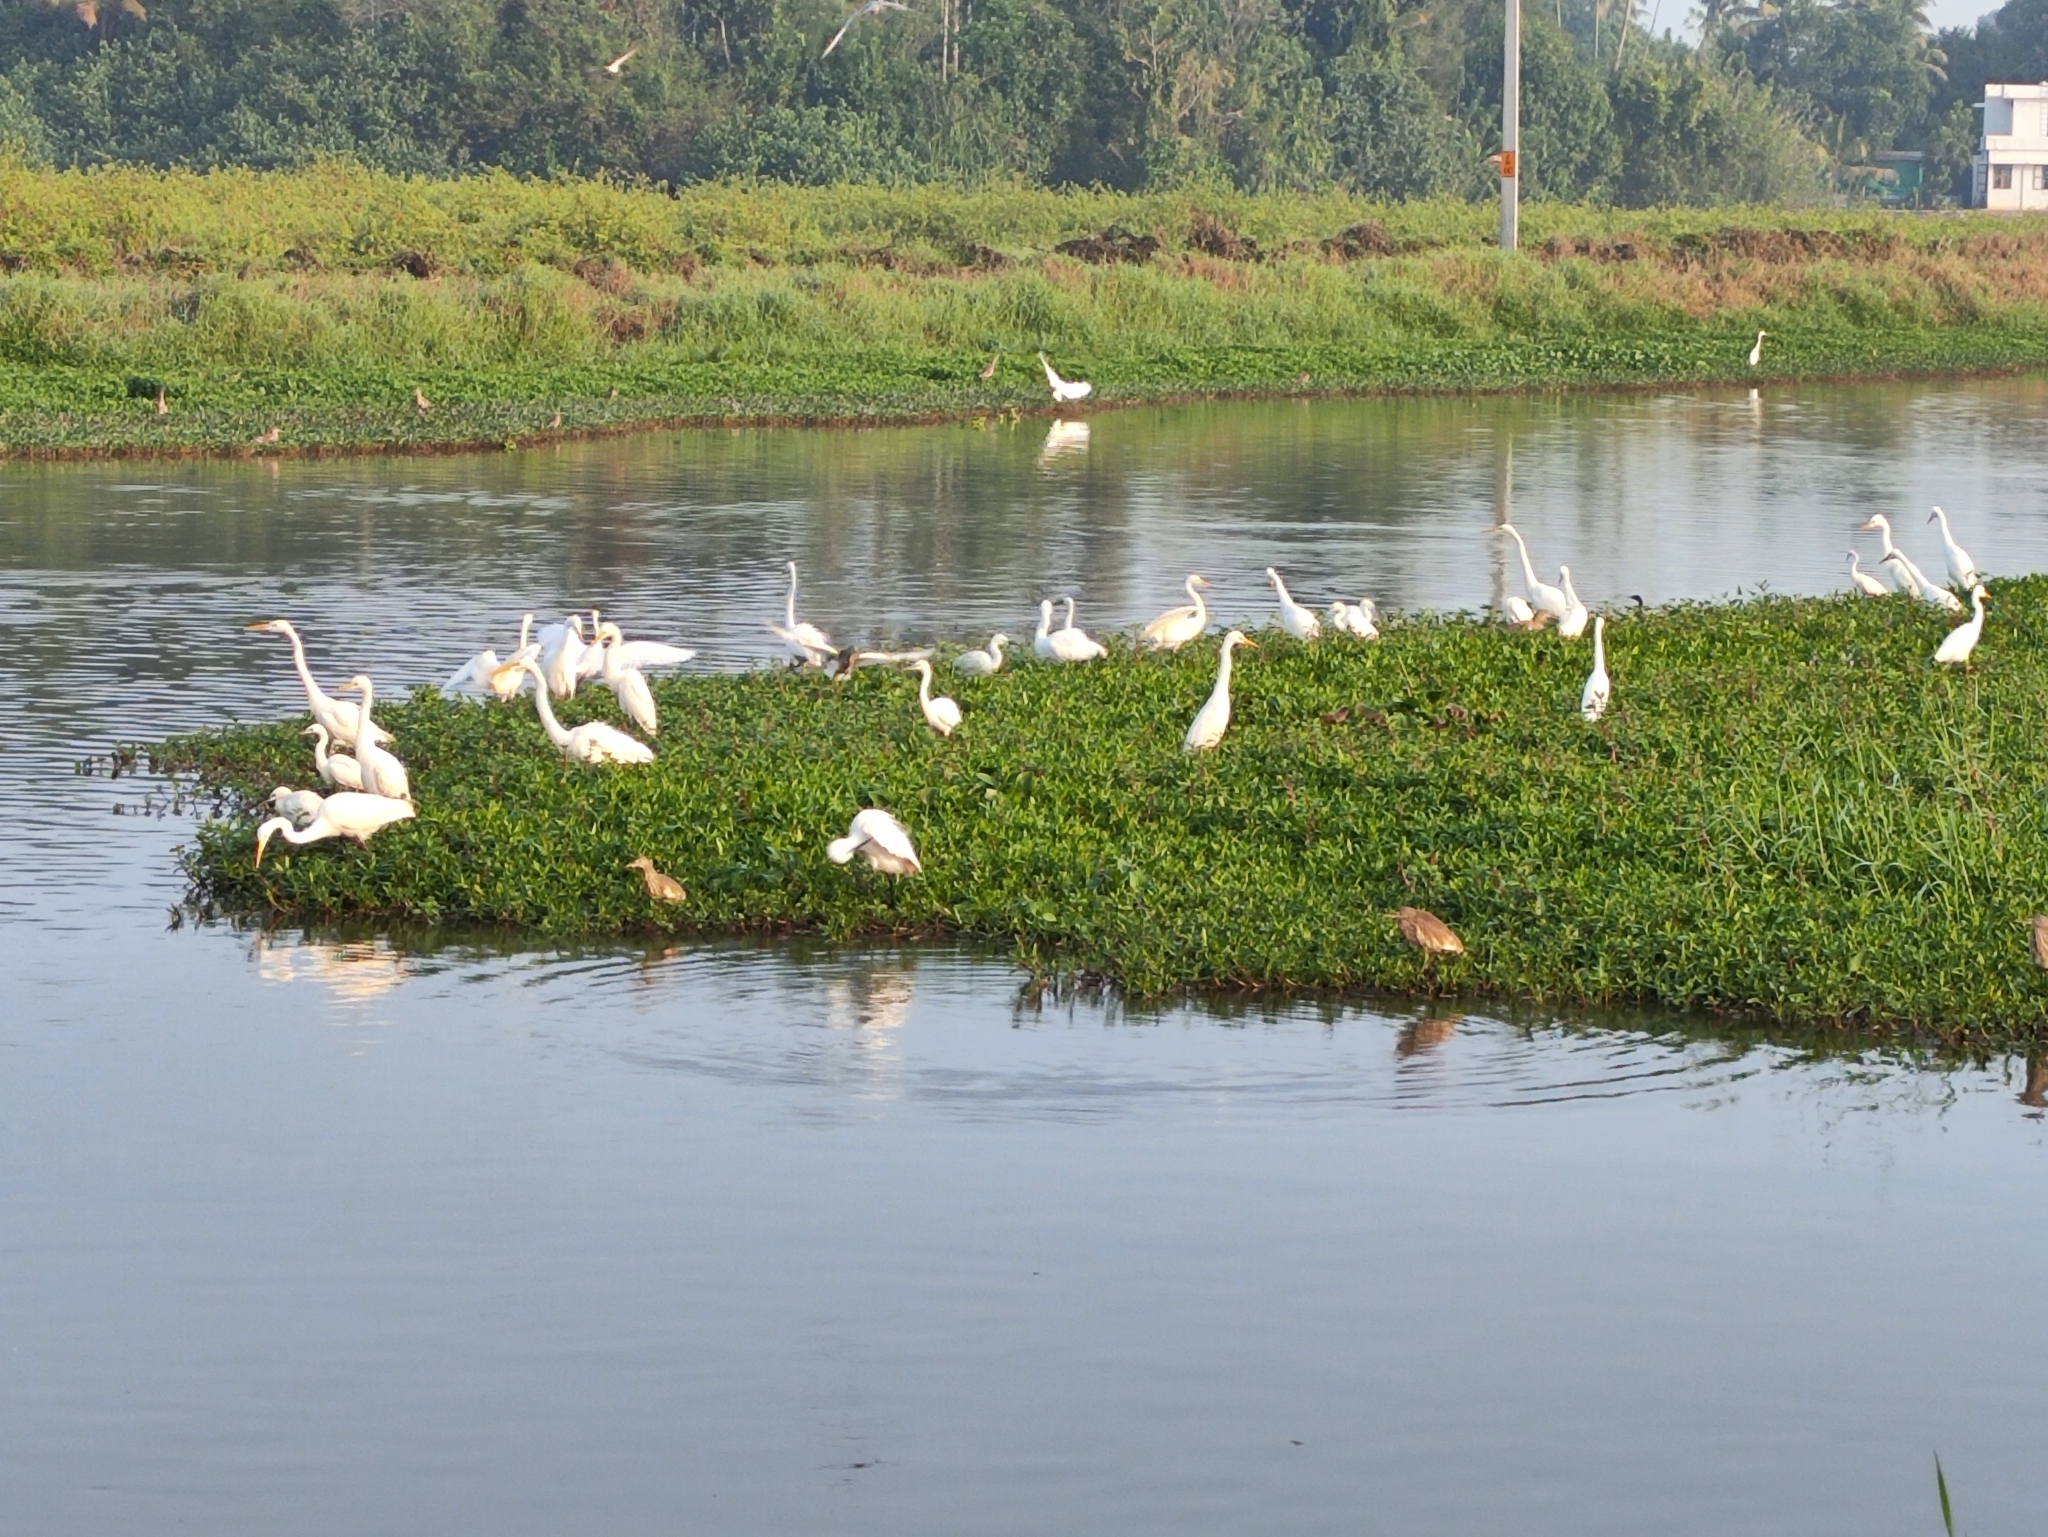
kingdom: Animalia
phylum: Chordata
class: Aves
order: Pelecaniformes
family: Ardeidae
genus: Bubulcus
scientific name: Bubulcus coromandus
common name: Eastern cattle egret
